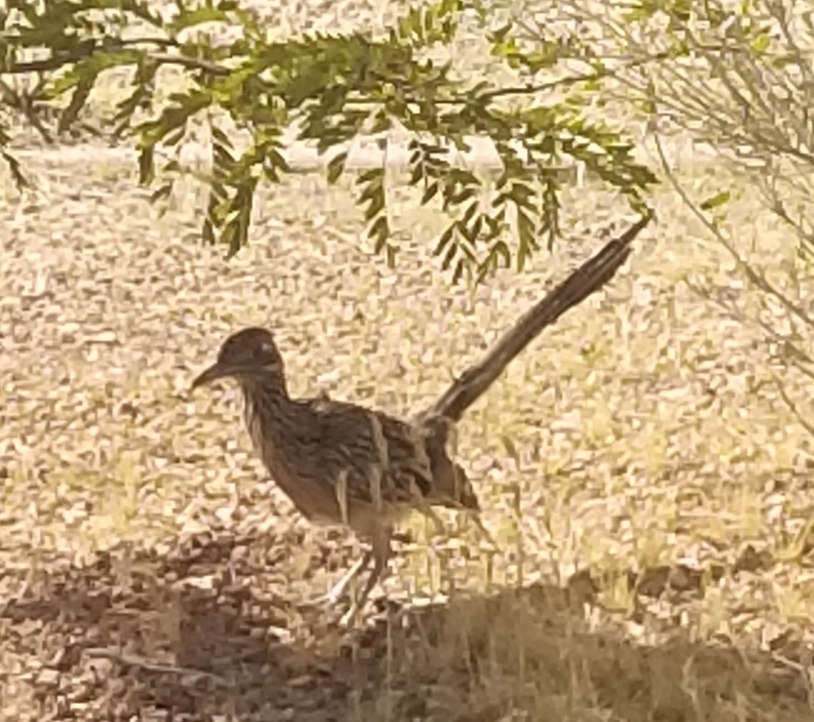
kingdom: Animalia
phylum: Chordata
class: Aves
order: Cuculiformes
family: Cuculidae
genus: Geococcyx
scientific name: Geococcyx californianus
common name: Greater roadrunner
